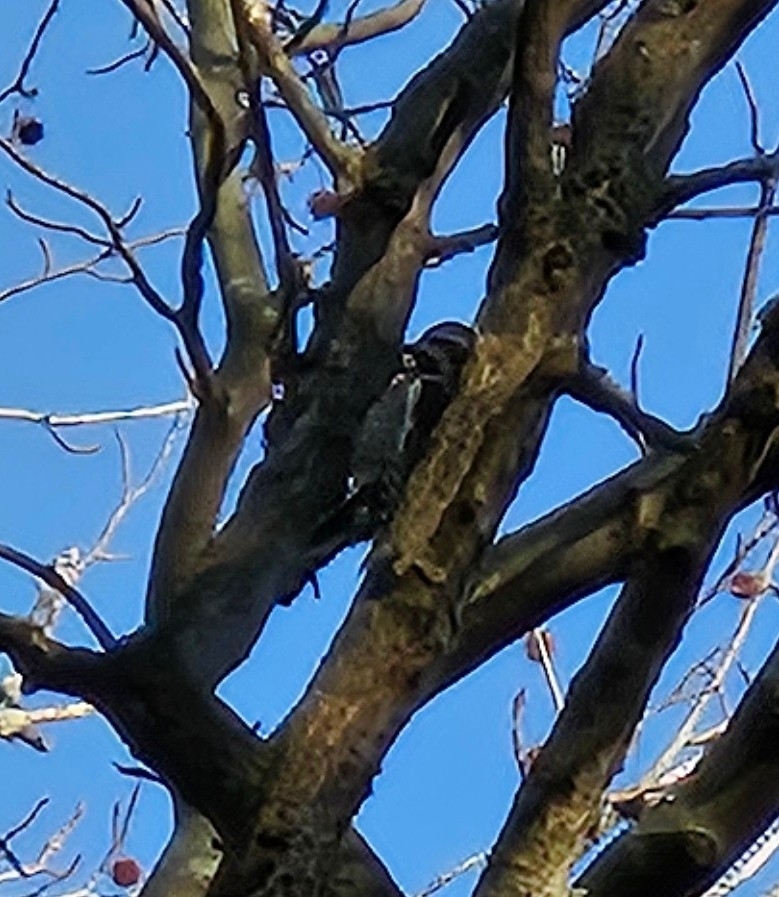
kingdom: Animalia
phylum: Chordata
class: Aves
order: Piciformes
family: Picidae
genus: Sphyrapicus
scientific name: Sphyrapicus varius
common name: Yellow-bellied sapsucker
